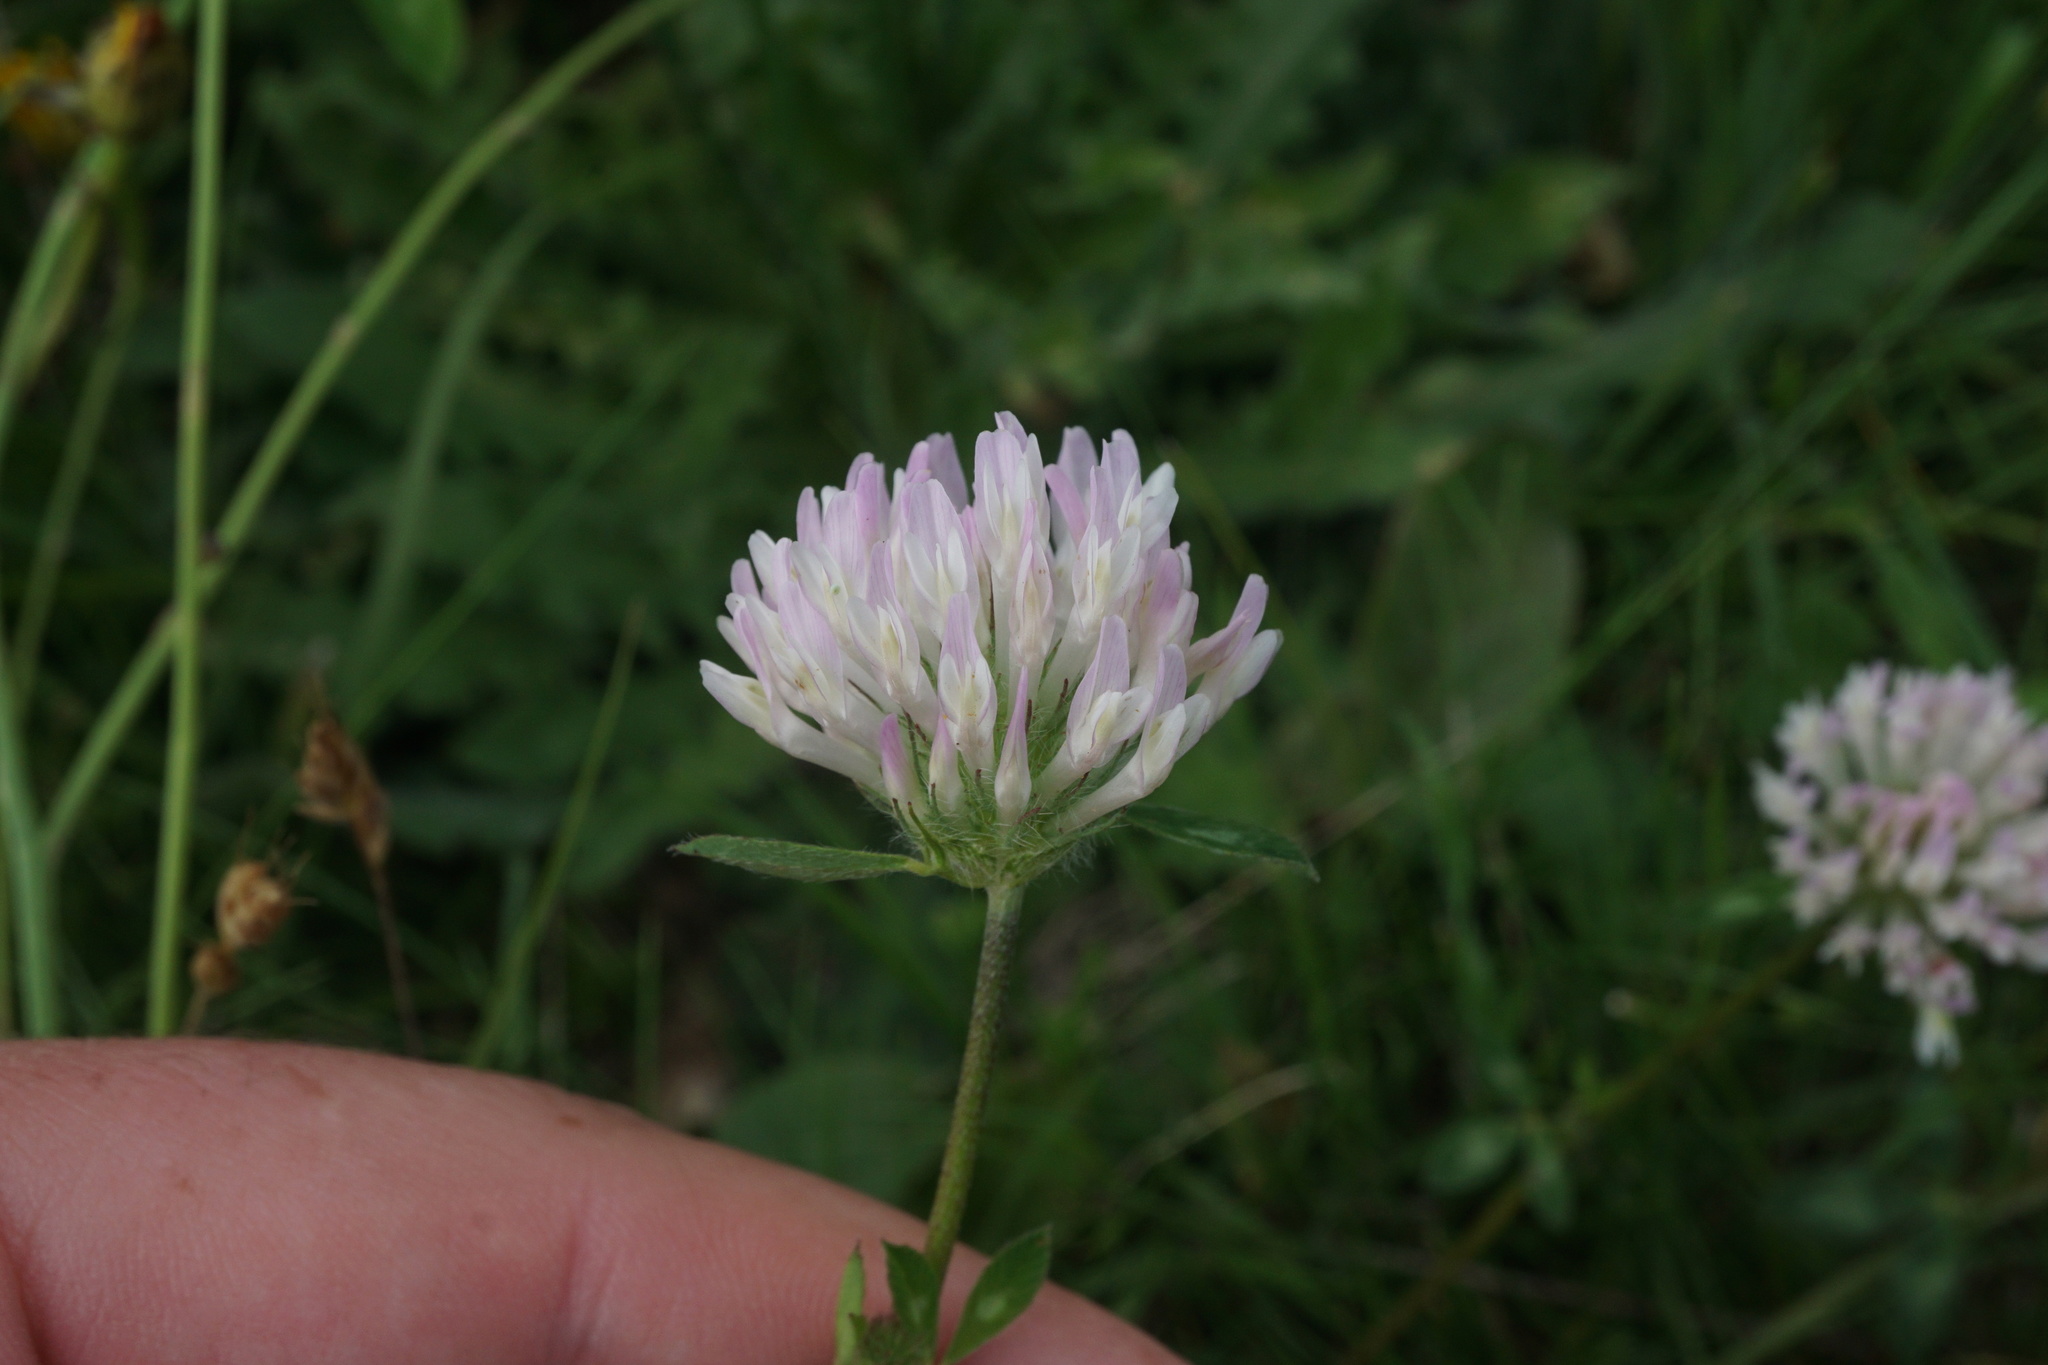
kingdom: Plantae
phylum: Tracheophyta
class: Magnoliopsida
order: Fabales
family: Fabaceae
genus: Trifolium
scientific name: Trifolium pratense
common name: Red clover
